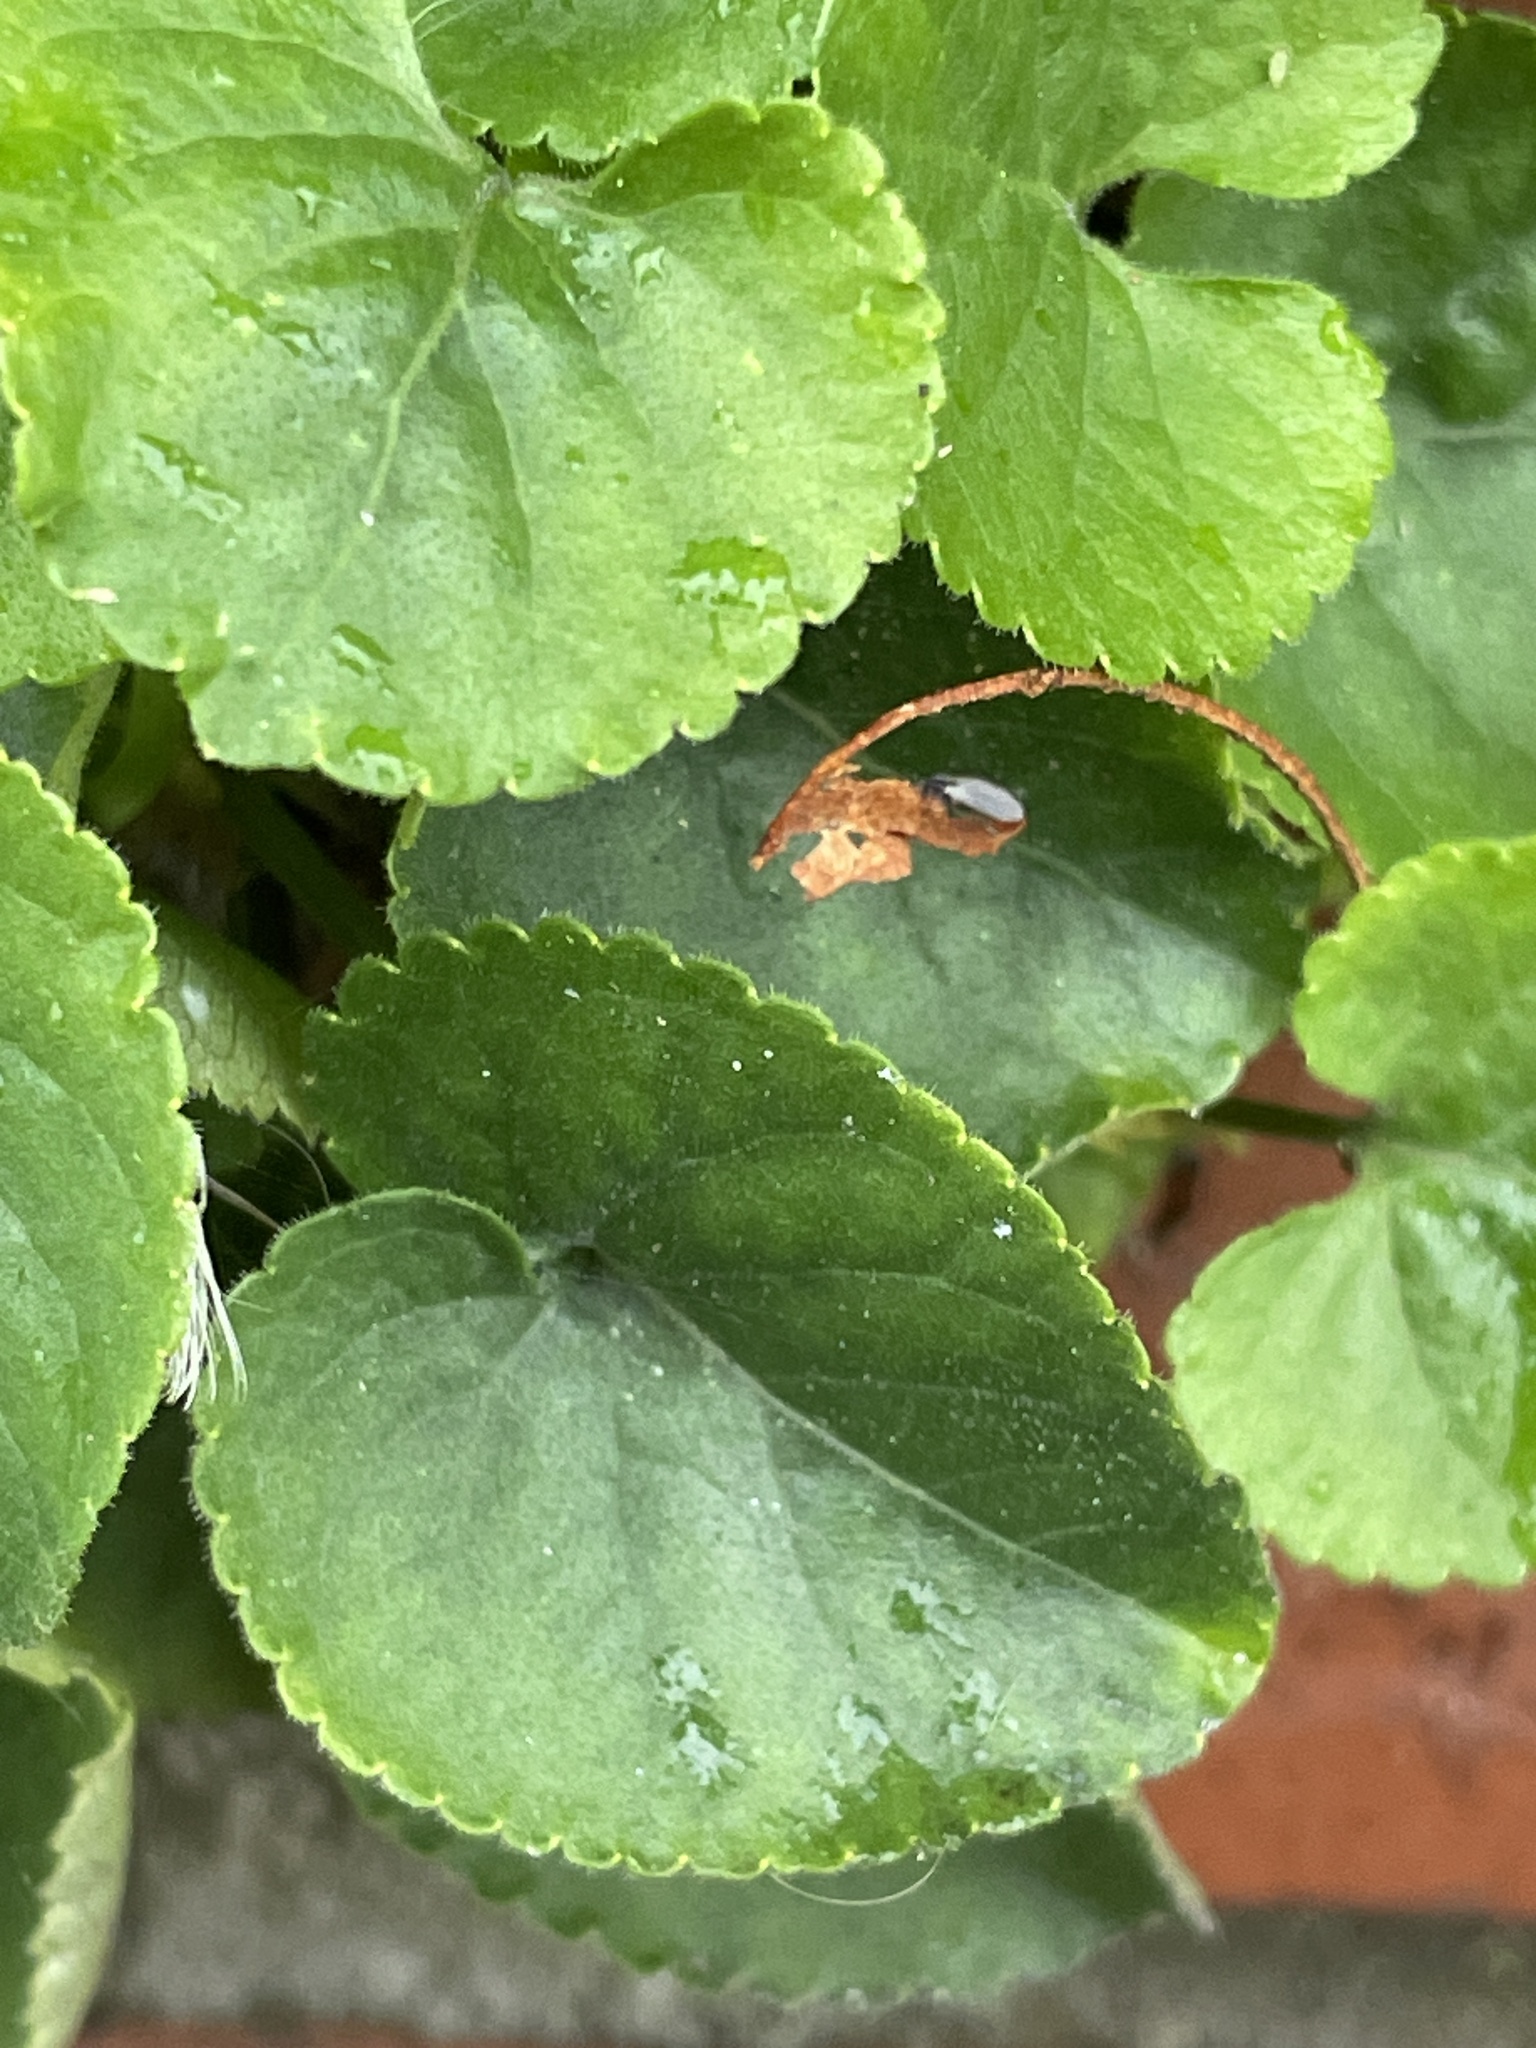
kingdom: Plantae
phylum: Tracheophyta
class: Magnoliopsida
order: Malpighiales
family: Violaceae
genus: Viola
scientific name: Viola odorata
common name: Sweet violet
